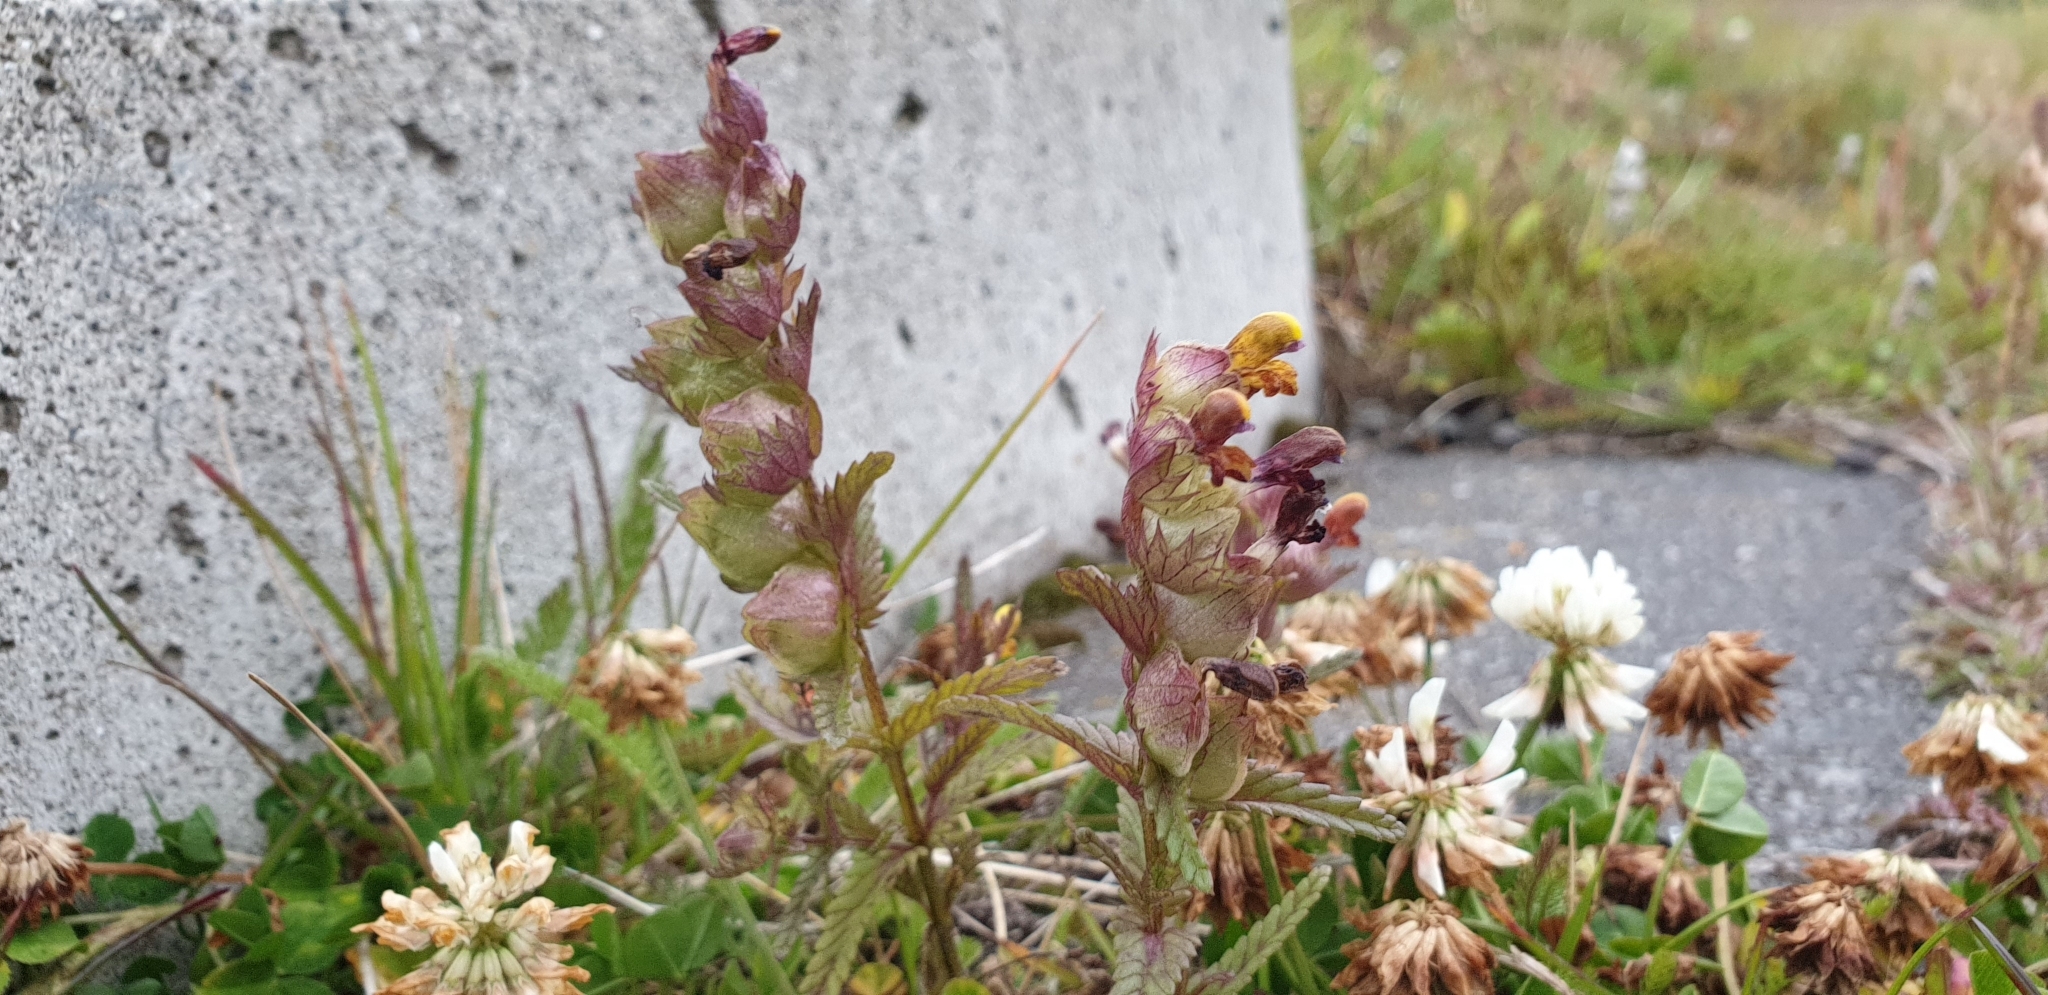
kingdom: Plantae
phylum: Tracheophyta
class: Magnoliopsida
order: Lamiales
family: Orobanchaceae
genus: Rhinanthus
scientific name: Rhinanthus minor
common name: Yellow-rattle
